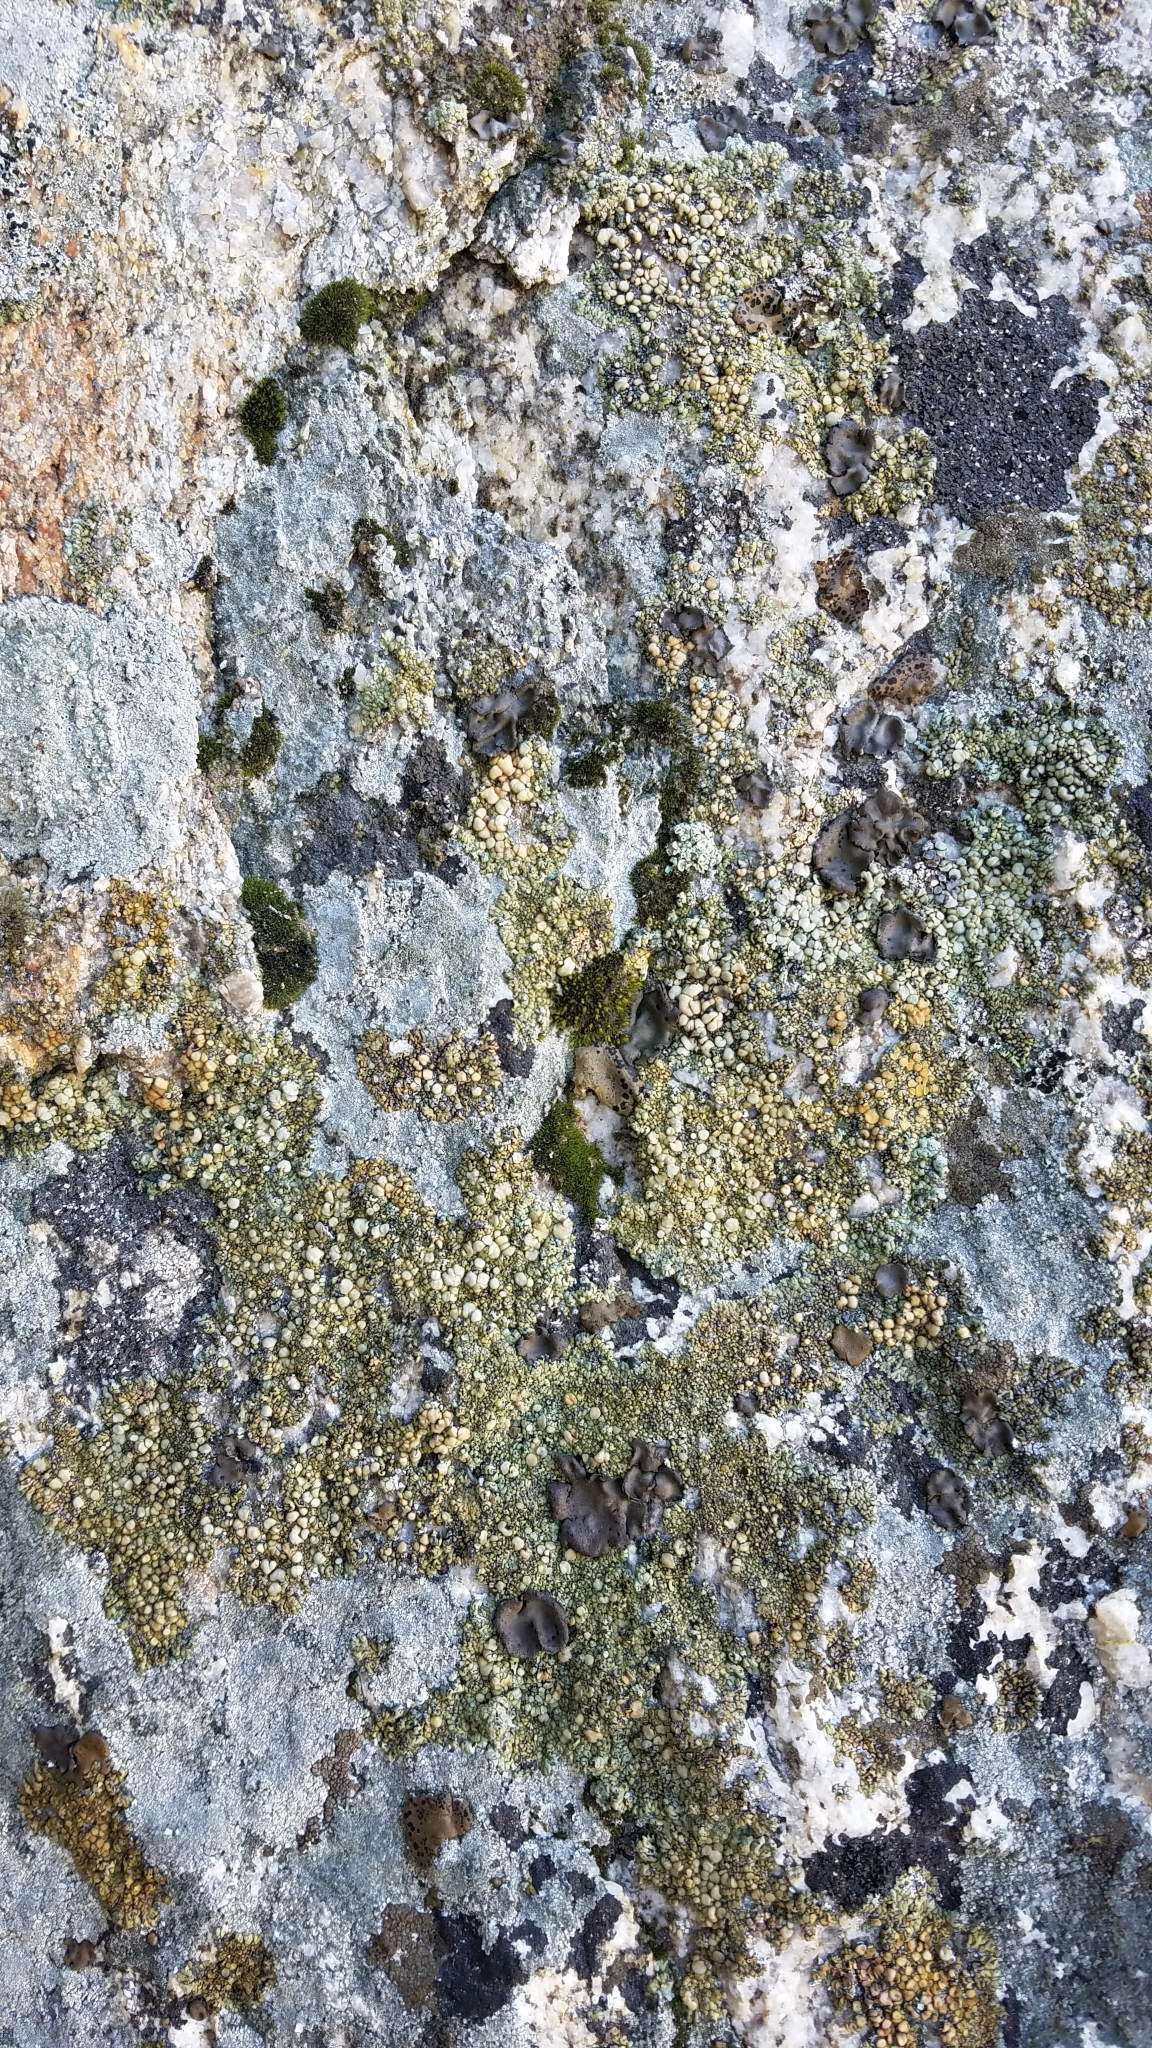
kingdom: Fungi
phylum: Ascomycota
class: Lecanoromycetes
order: Lecanorales
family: Lecanoraceae
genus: Lecanora
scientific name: Lecanora polytropa
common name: Granite-speck rim lichen
